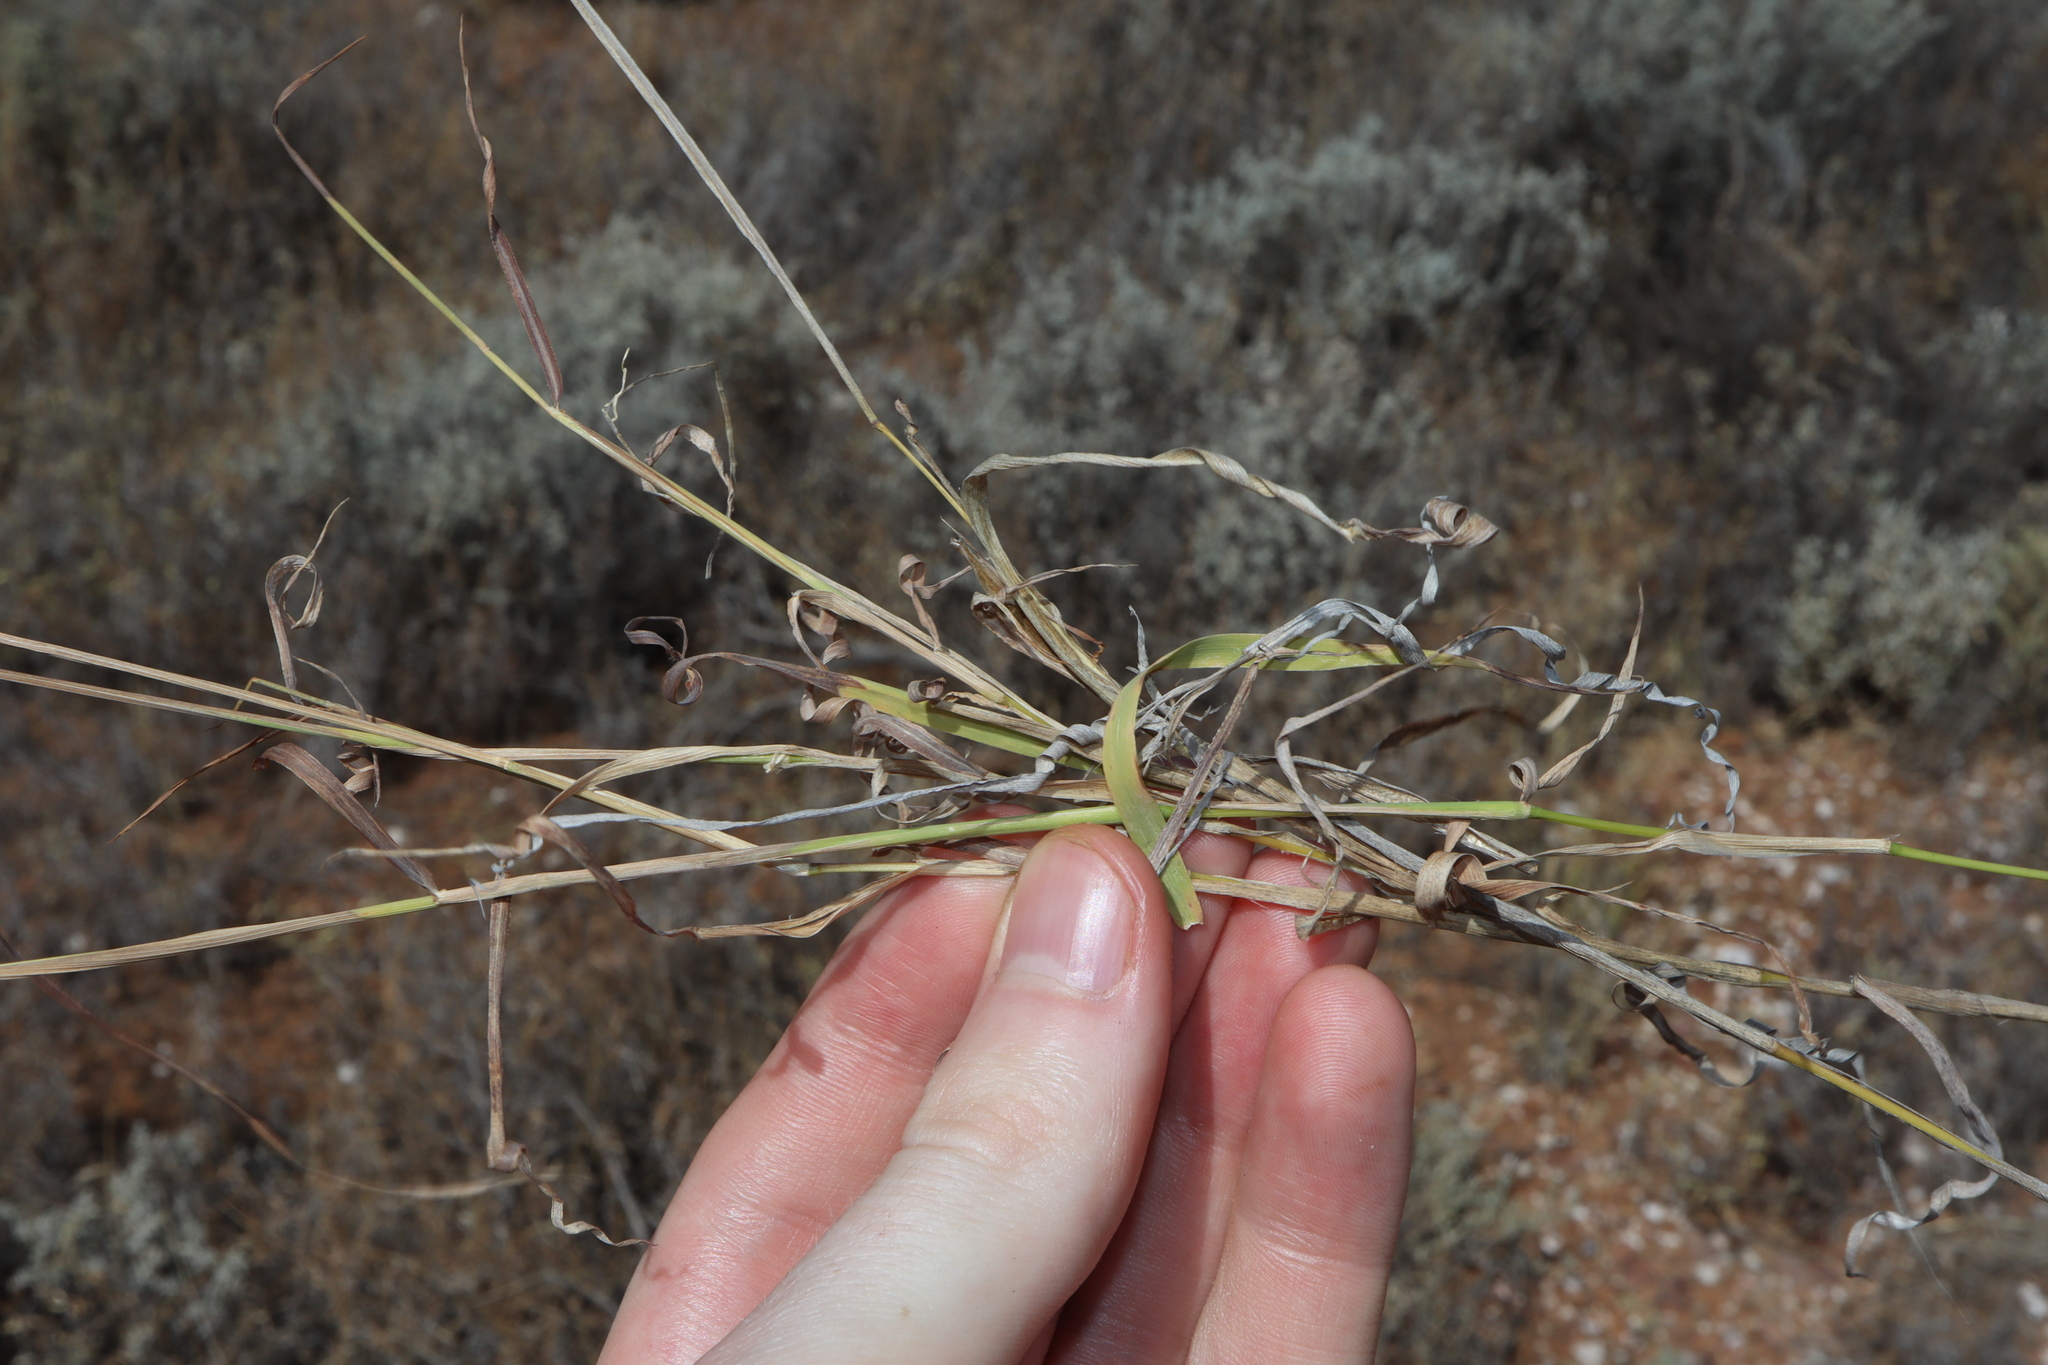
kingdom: Plantae
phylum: Tracheophyta
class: Liliopsida
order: Poales
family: Poaceae
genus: Digitaria
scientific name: Digitaria brownii
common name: Cotton grass
